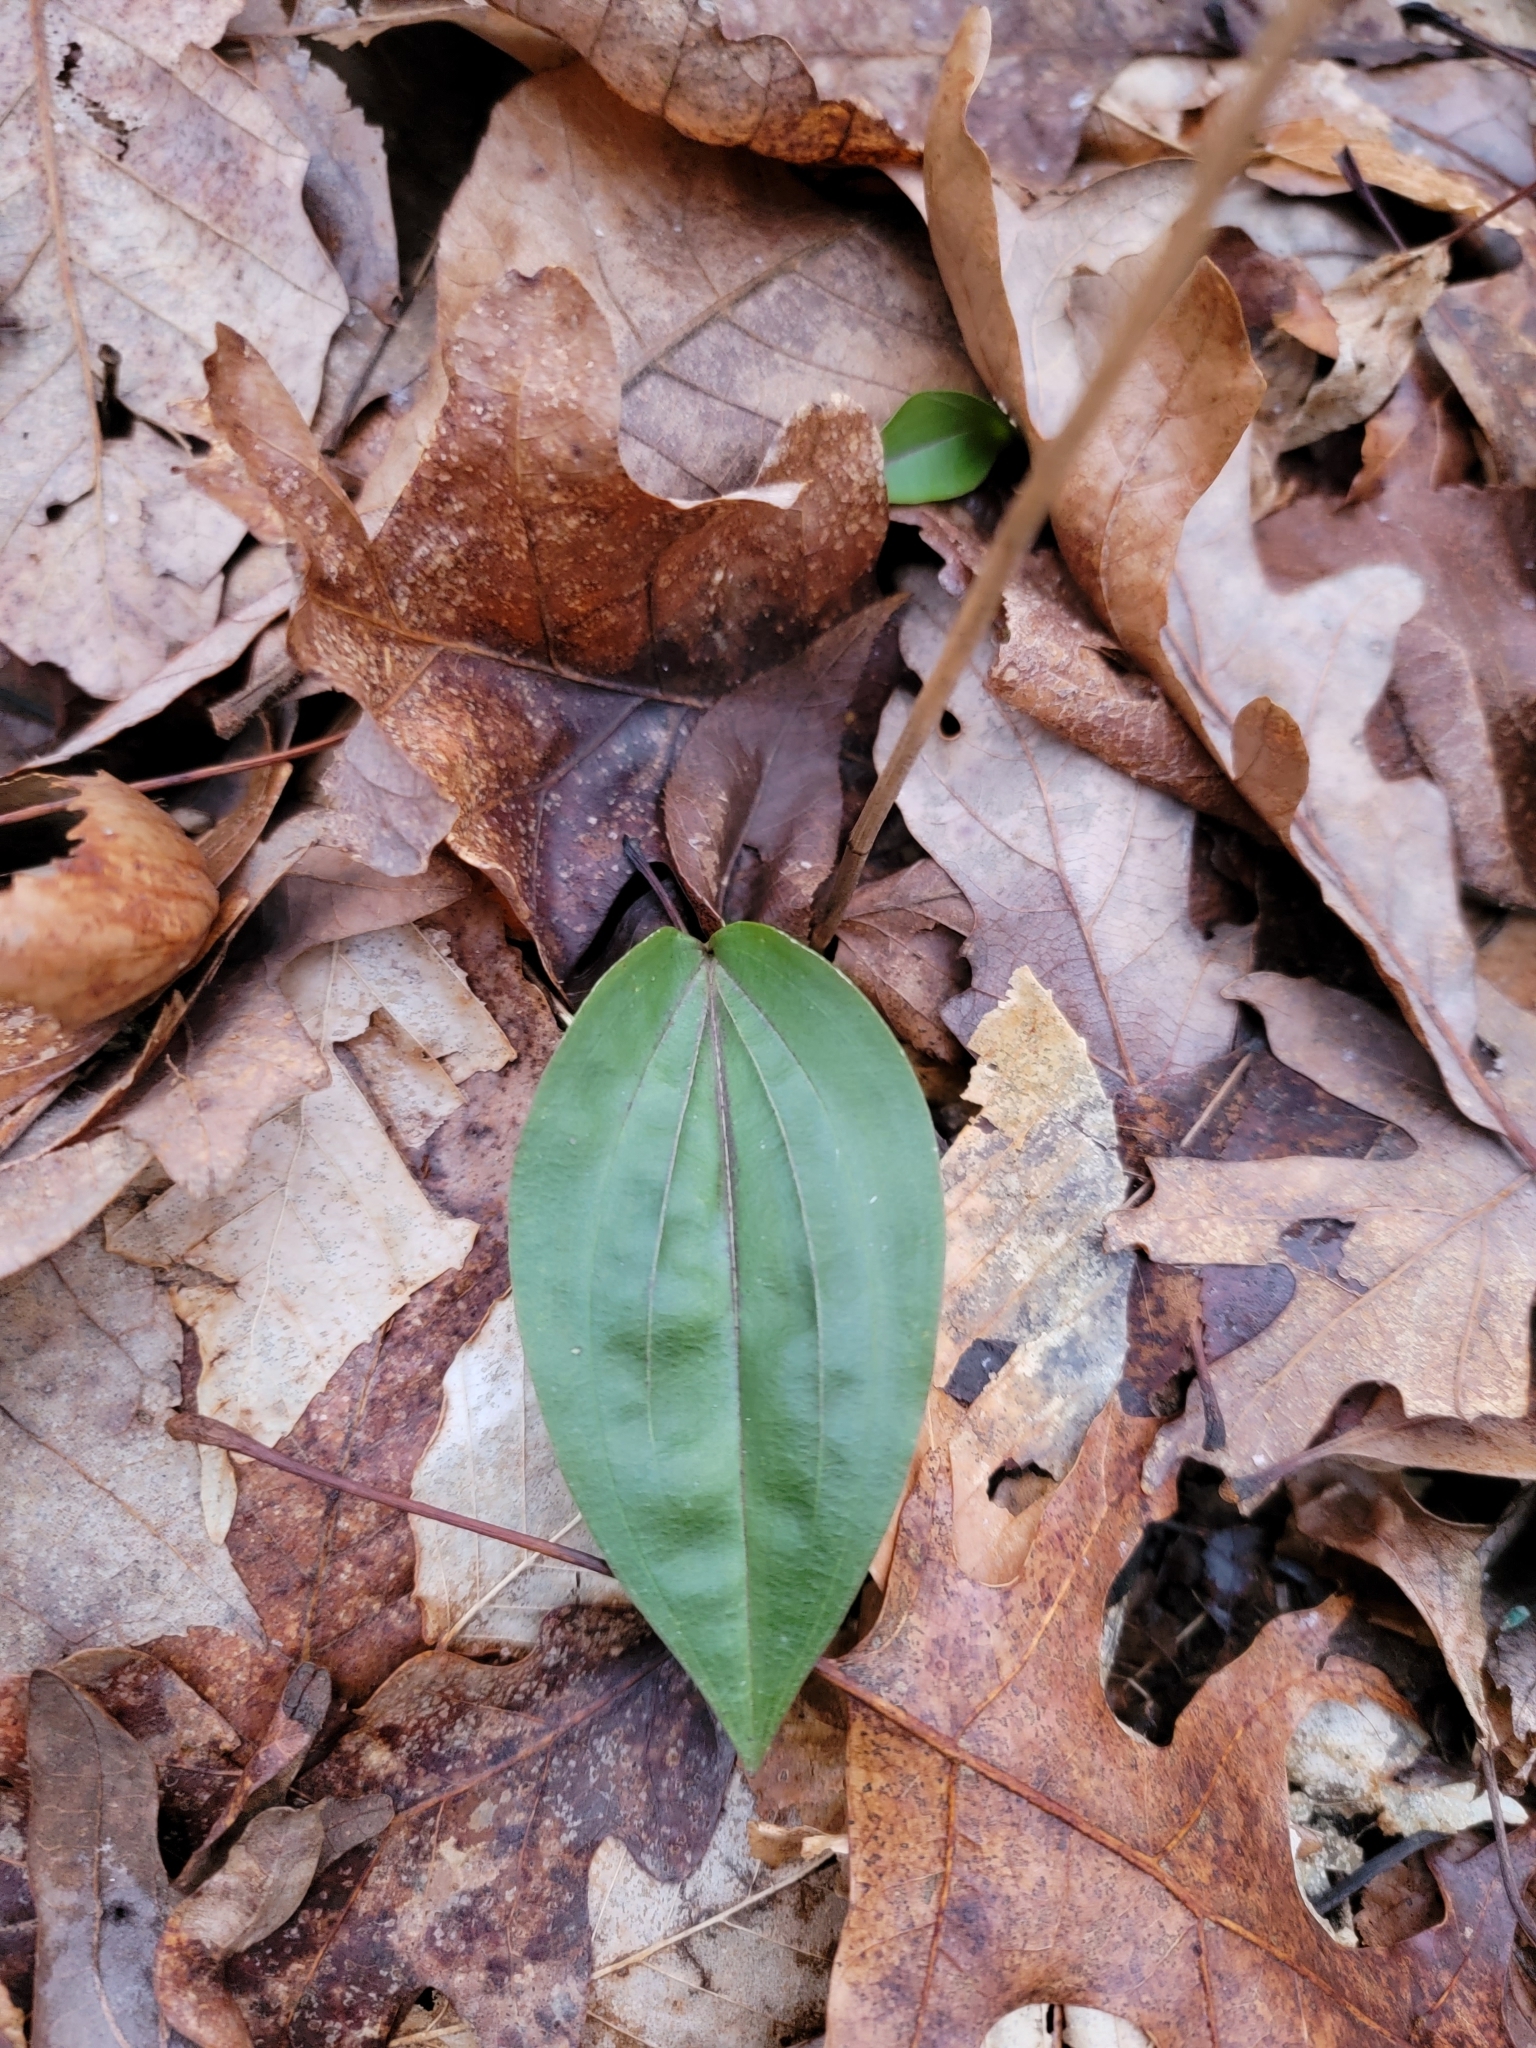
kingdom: Plantae
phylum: Tracheophyta
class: Liliopsida
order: Asparagales
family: Orchidaceae
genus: Tipularia
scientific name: Tipularia discolor
